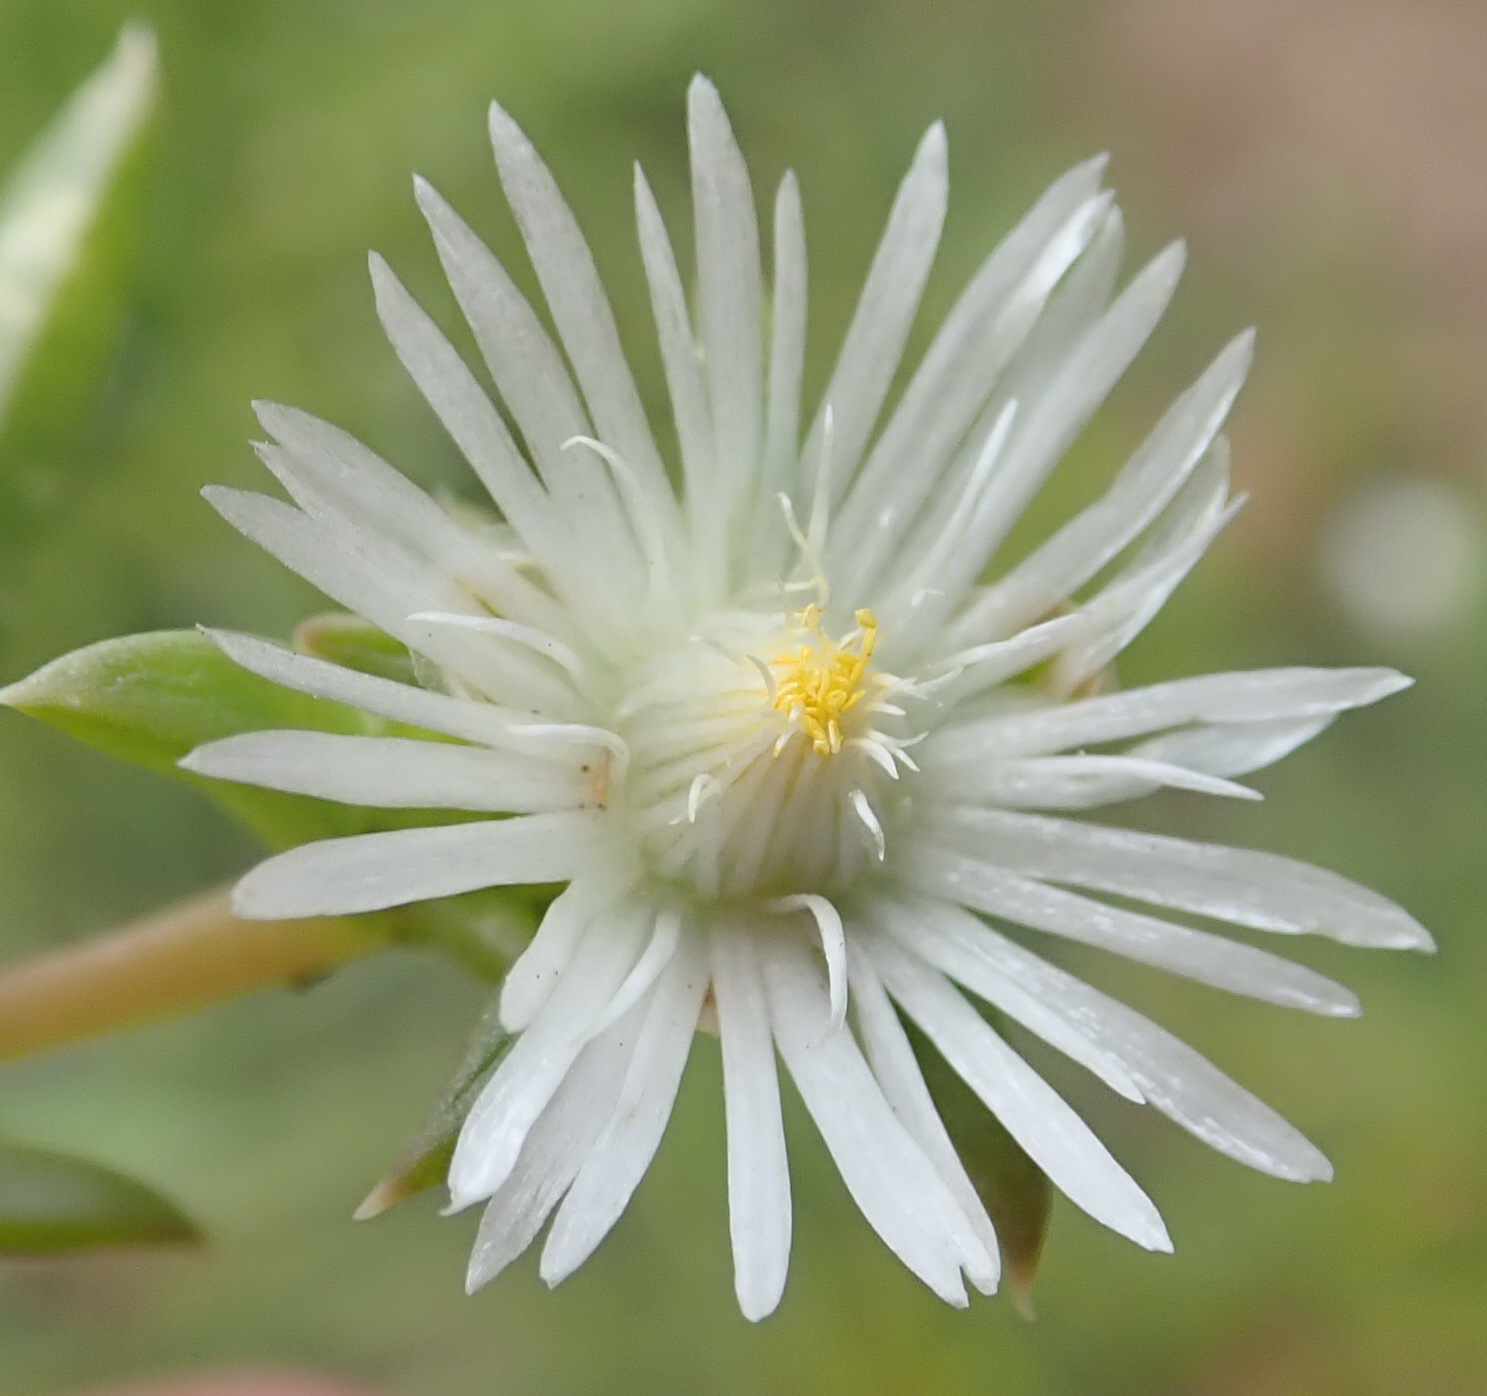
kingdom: Plantae
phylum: Tracheophyta
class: Magnoliopsida
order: Caryophyllales
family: Aizoaceae
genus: Delosperma
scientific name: Delosperma inconspicuum
